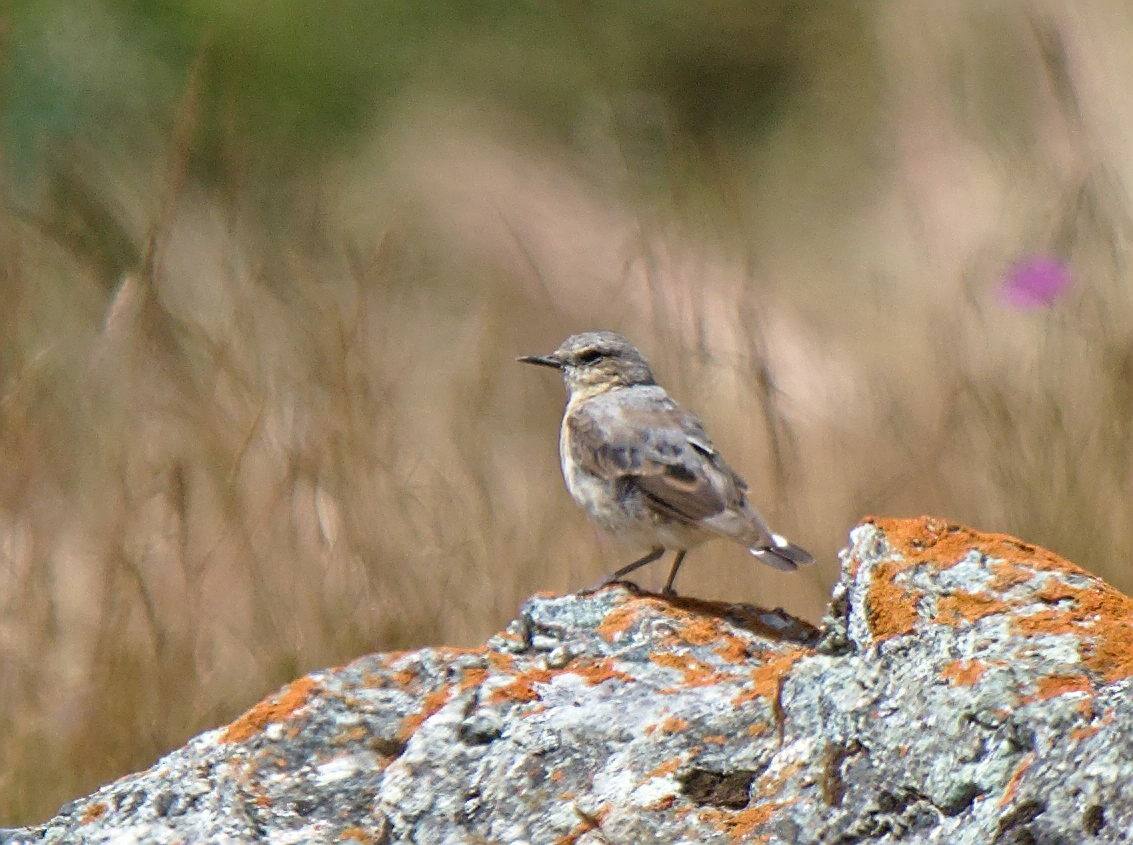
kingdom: Animalia
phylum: Chordata
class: Aves
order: Passeriformes
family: Muscicapidae
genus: Oenanthe
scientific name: Oenanthe oenanthe
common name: Northern wheatear
